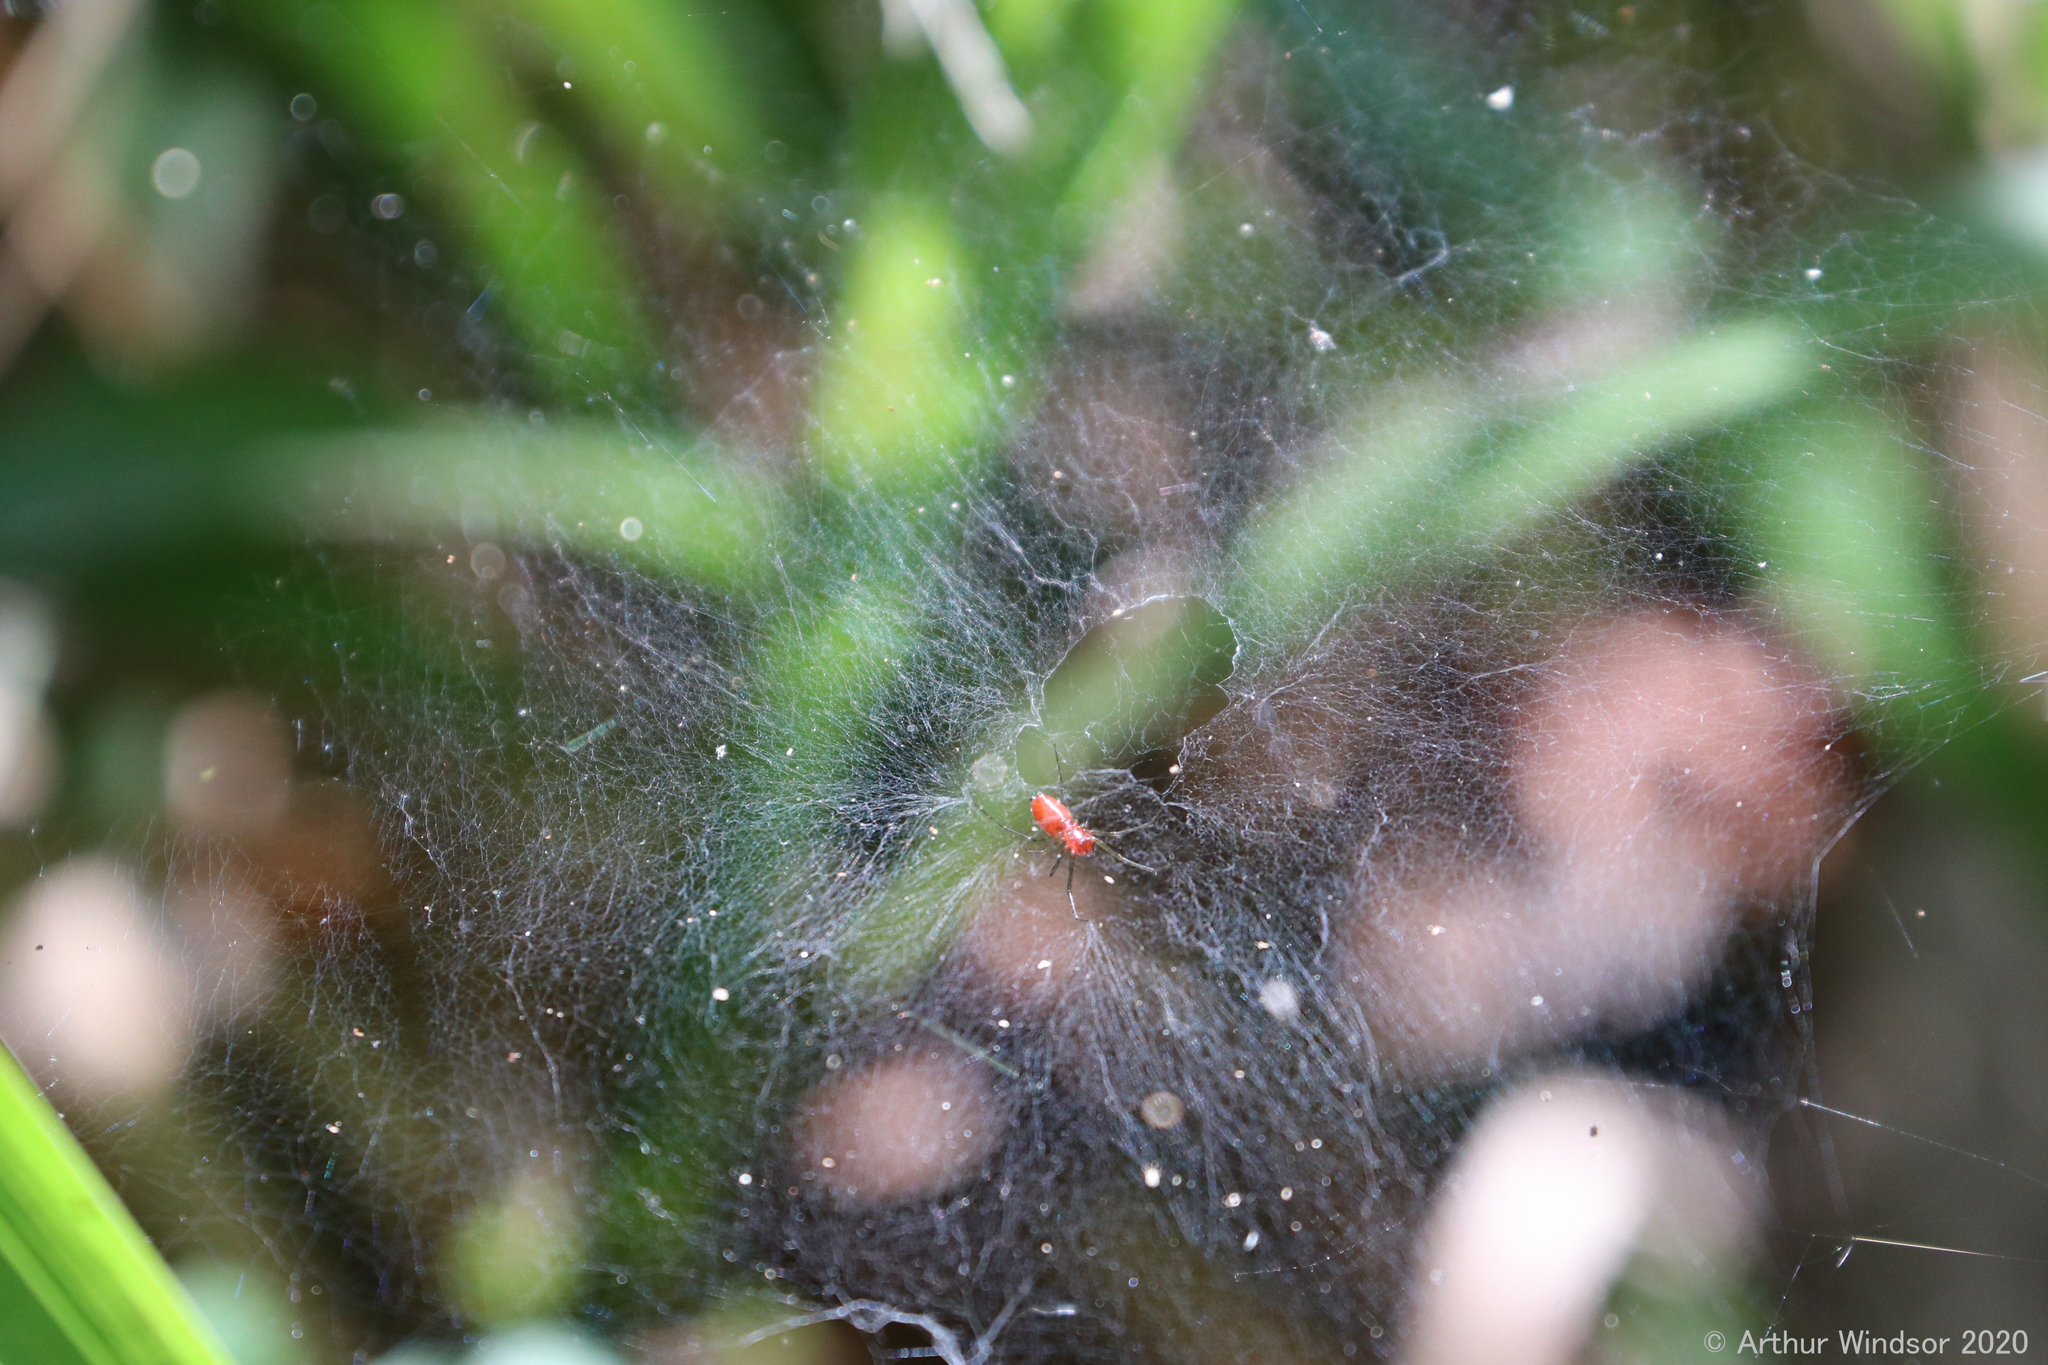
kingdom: Animalia
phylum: Arthropoda
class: Arachnida
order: Araneae
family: Linyphiidae
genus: Florinda
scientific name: Florinda coccinea
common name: Black-tailed red sheetweaver
